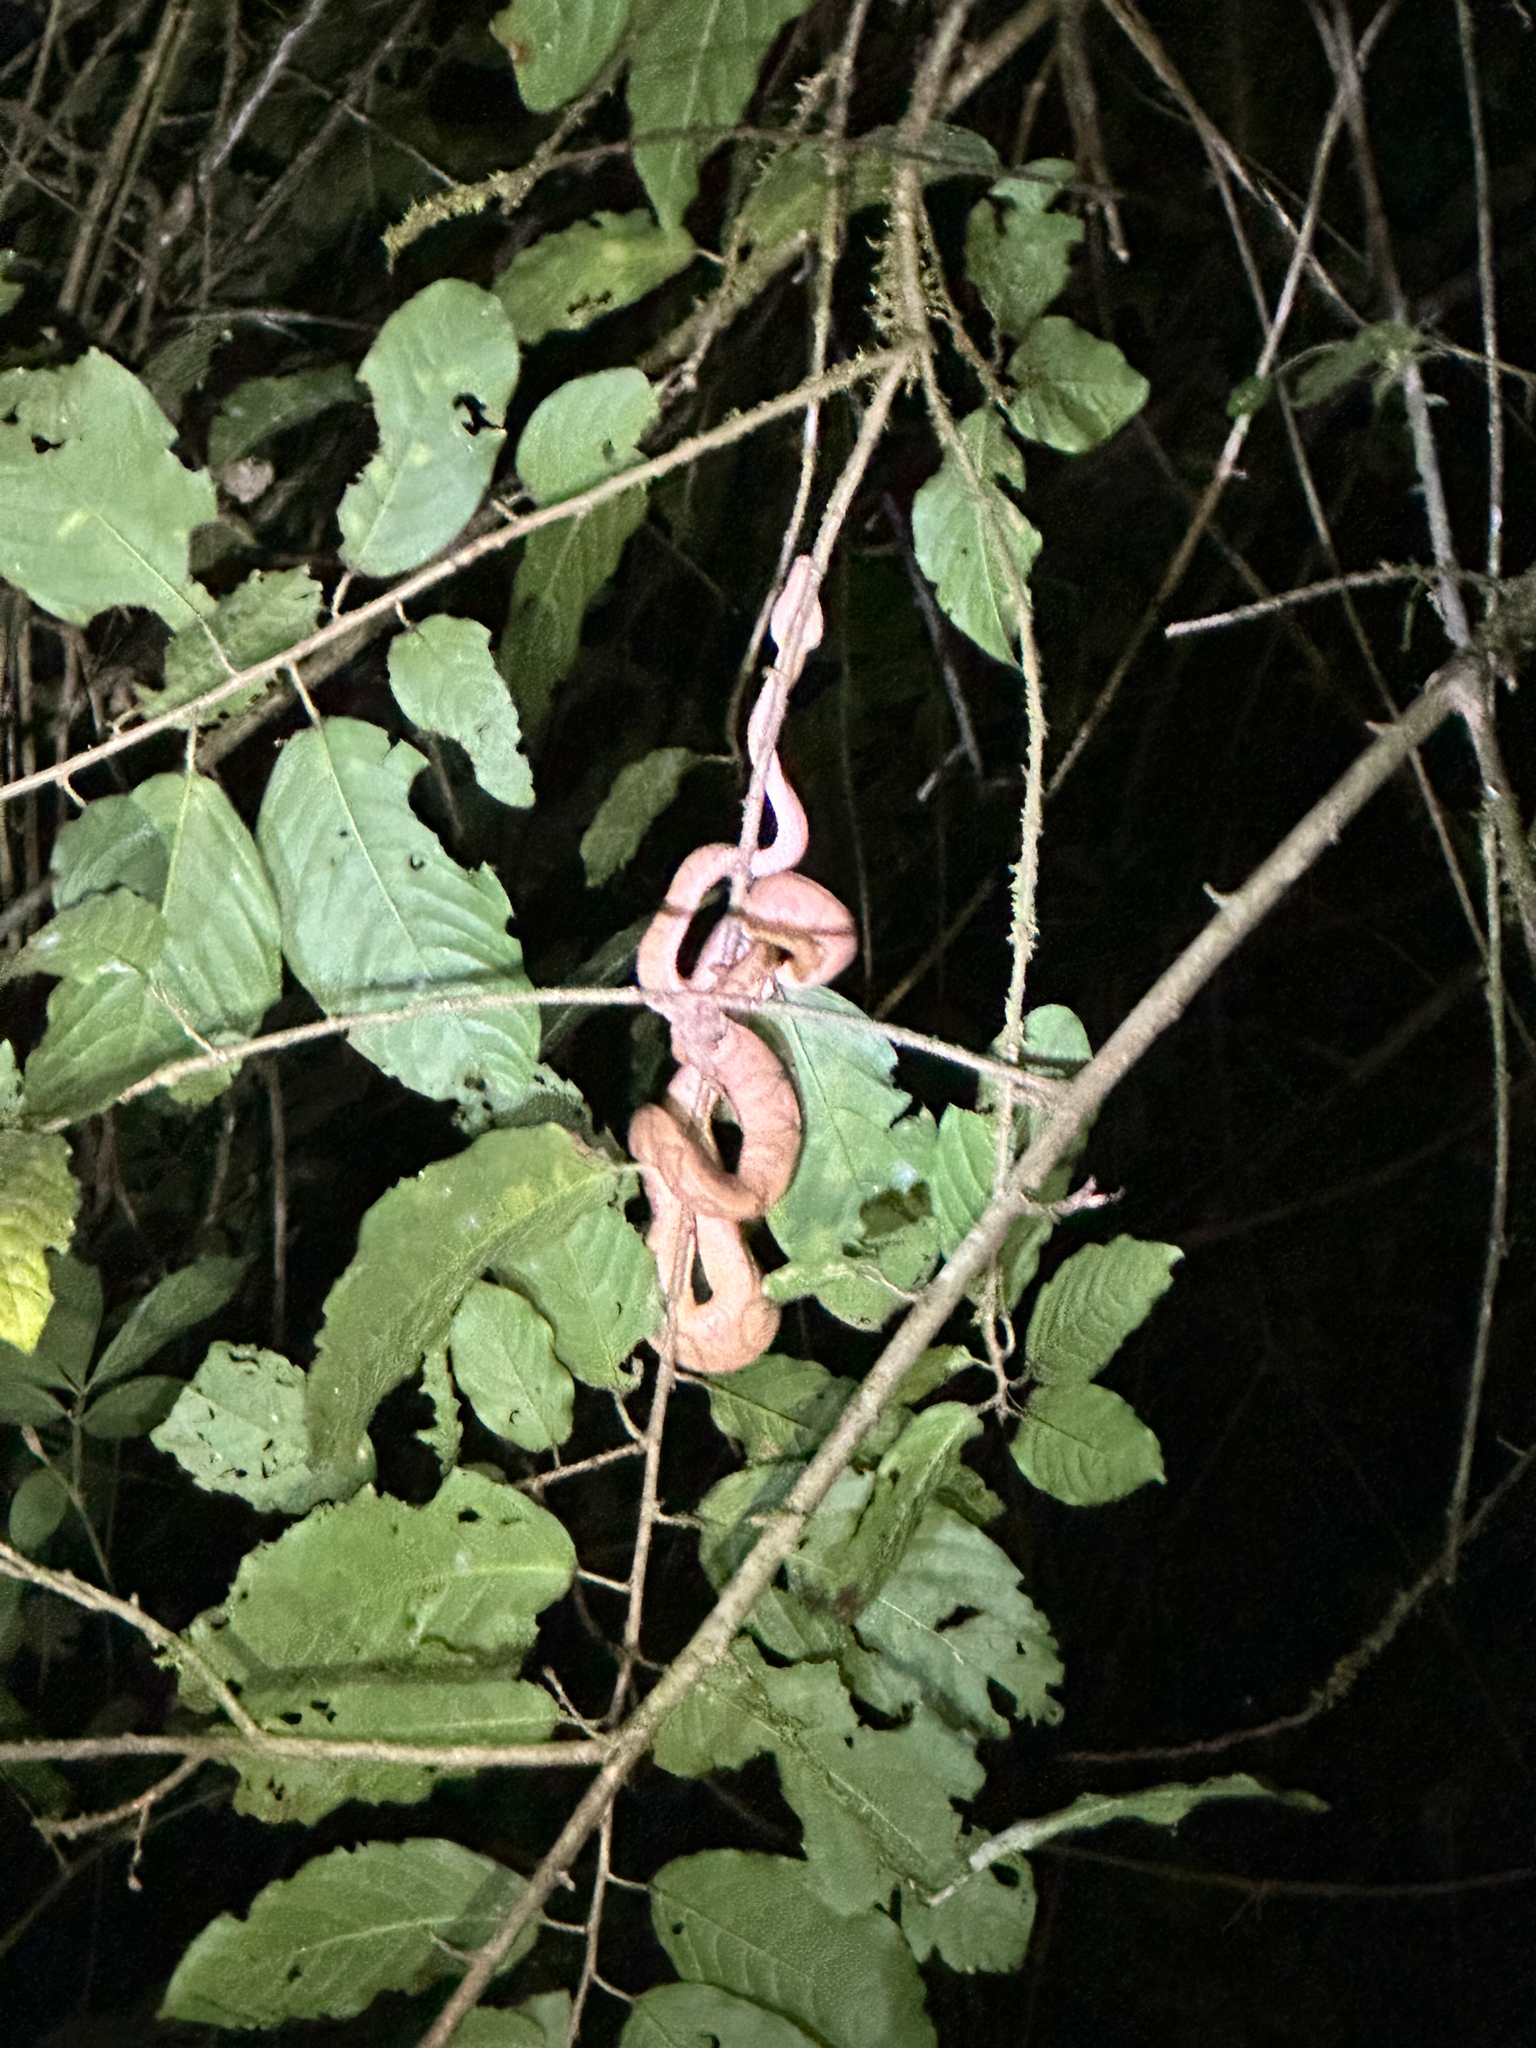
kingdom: Animalia
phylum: Chordata
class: Squamata
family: Boidae
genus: Corallus
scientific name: Corallus annulatus
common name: Ringed tree boa
